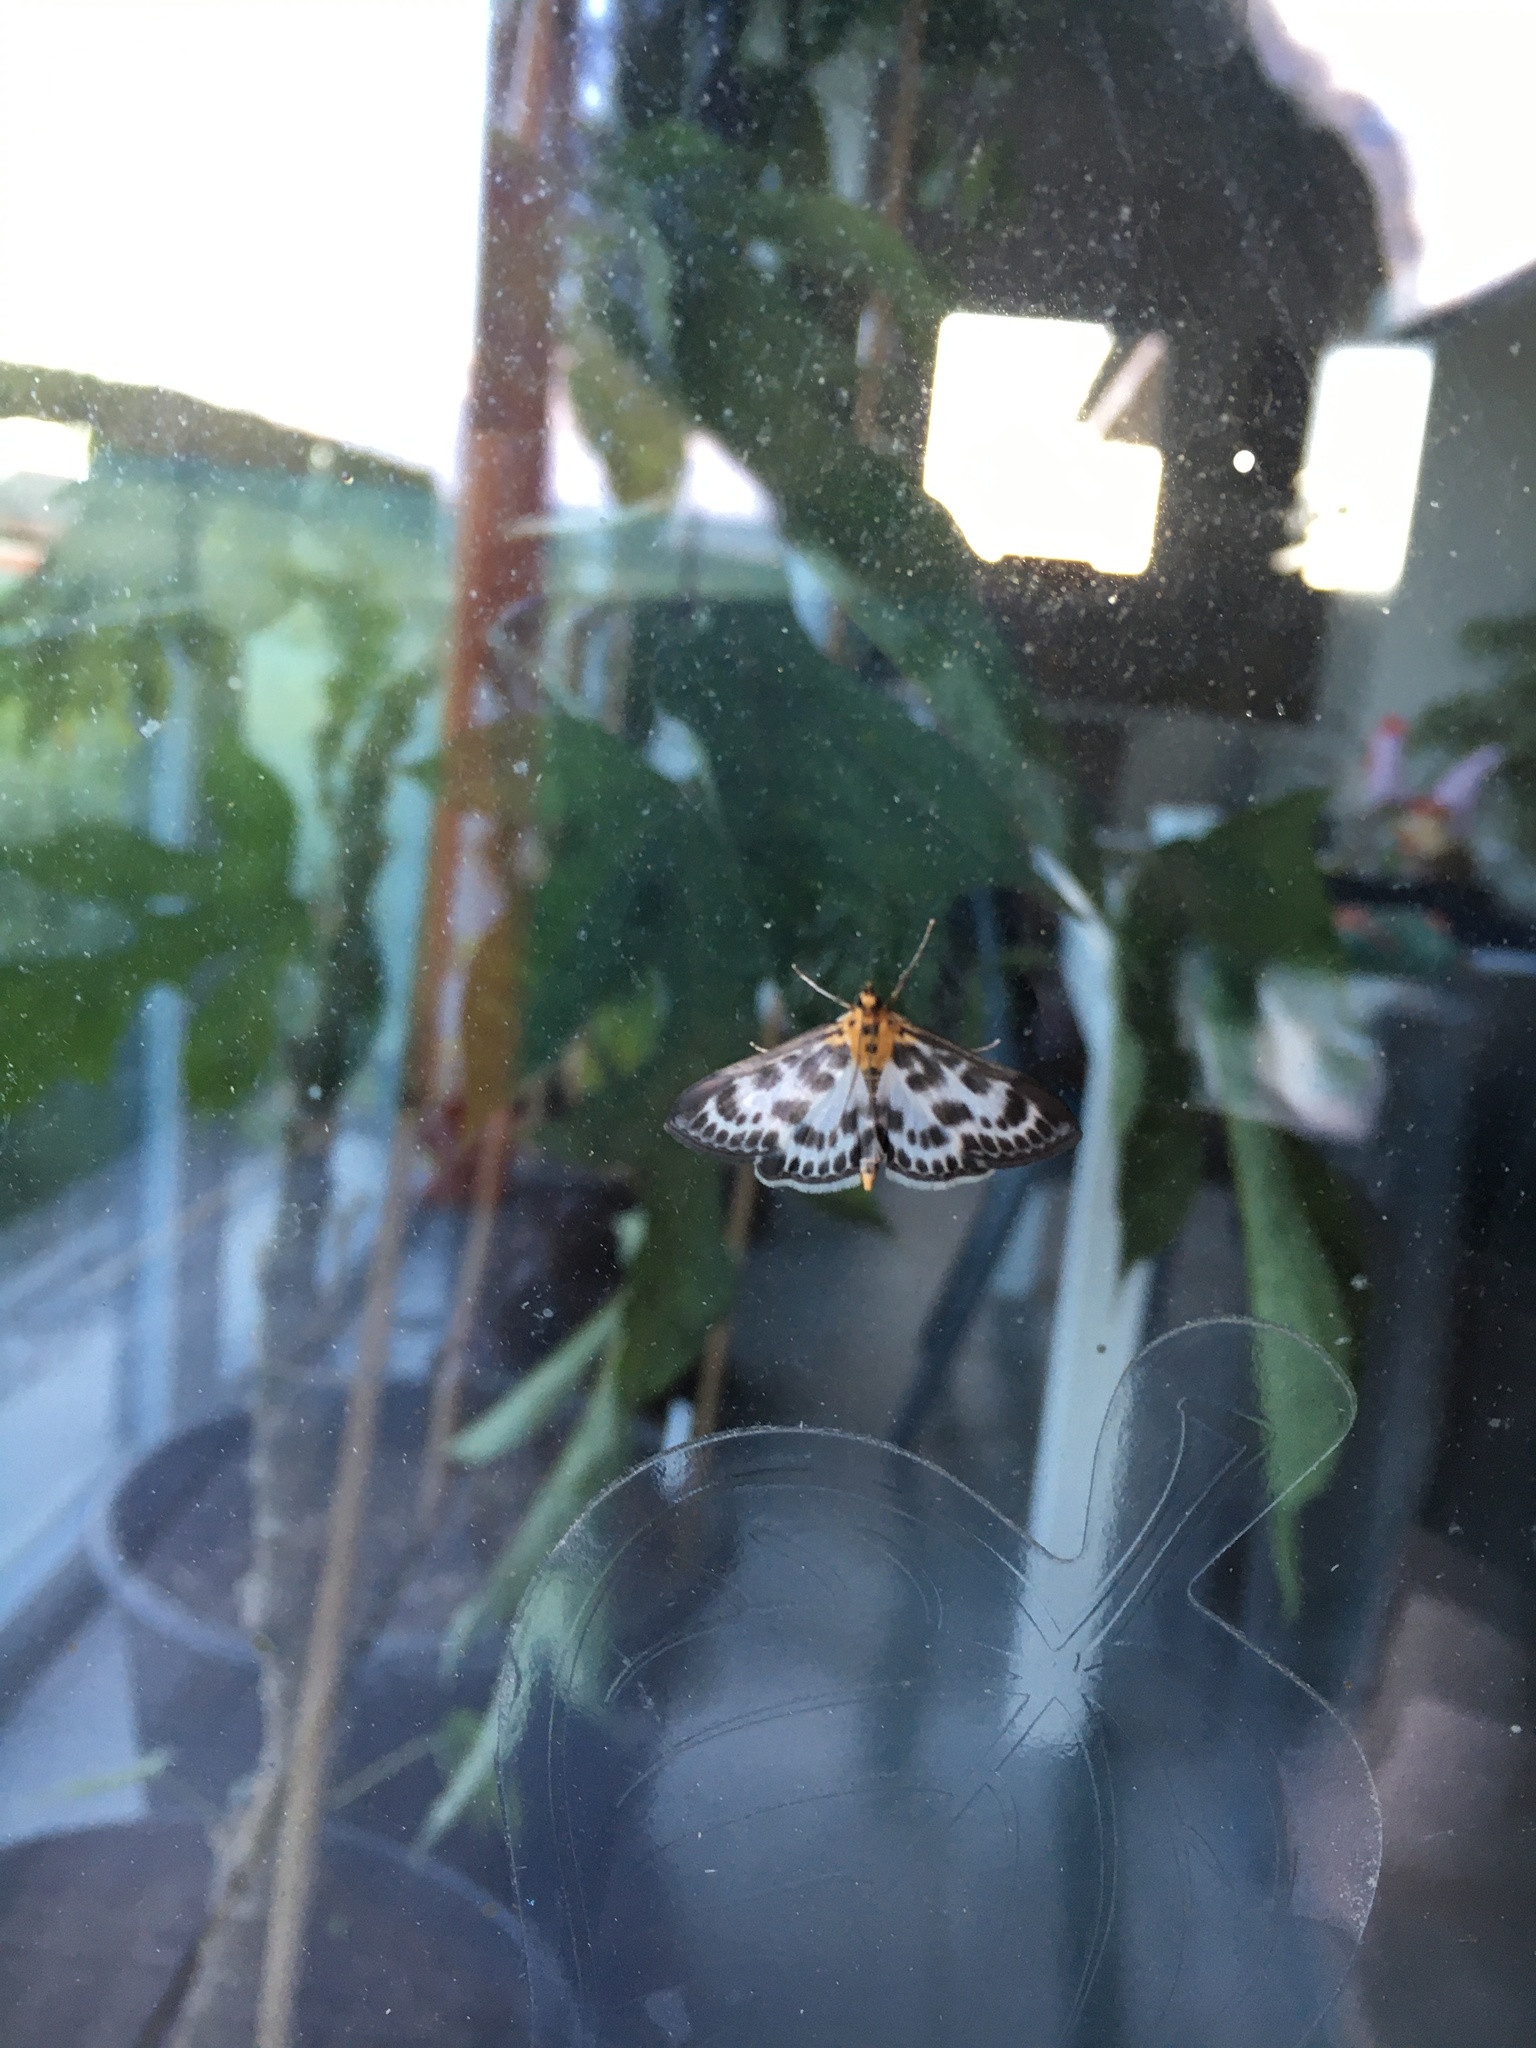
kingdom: Animalia
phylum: Arthropoda
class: Insecta
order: Lepidoptera
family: Crambidae
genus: Anania
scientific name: Anania hortulata
